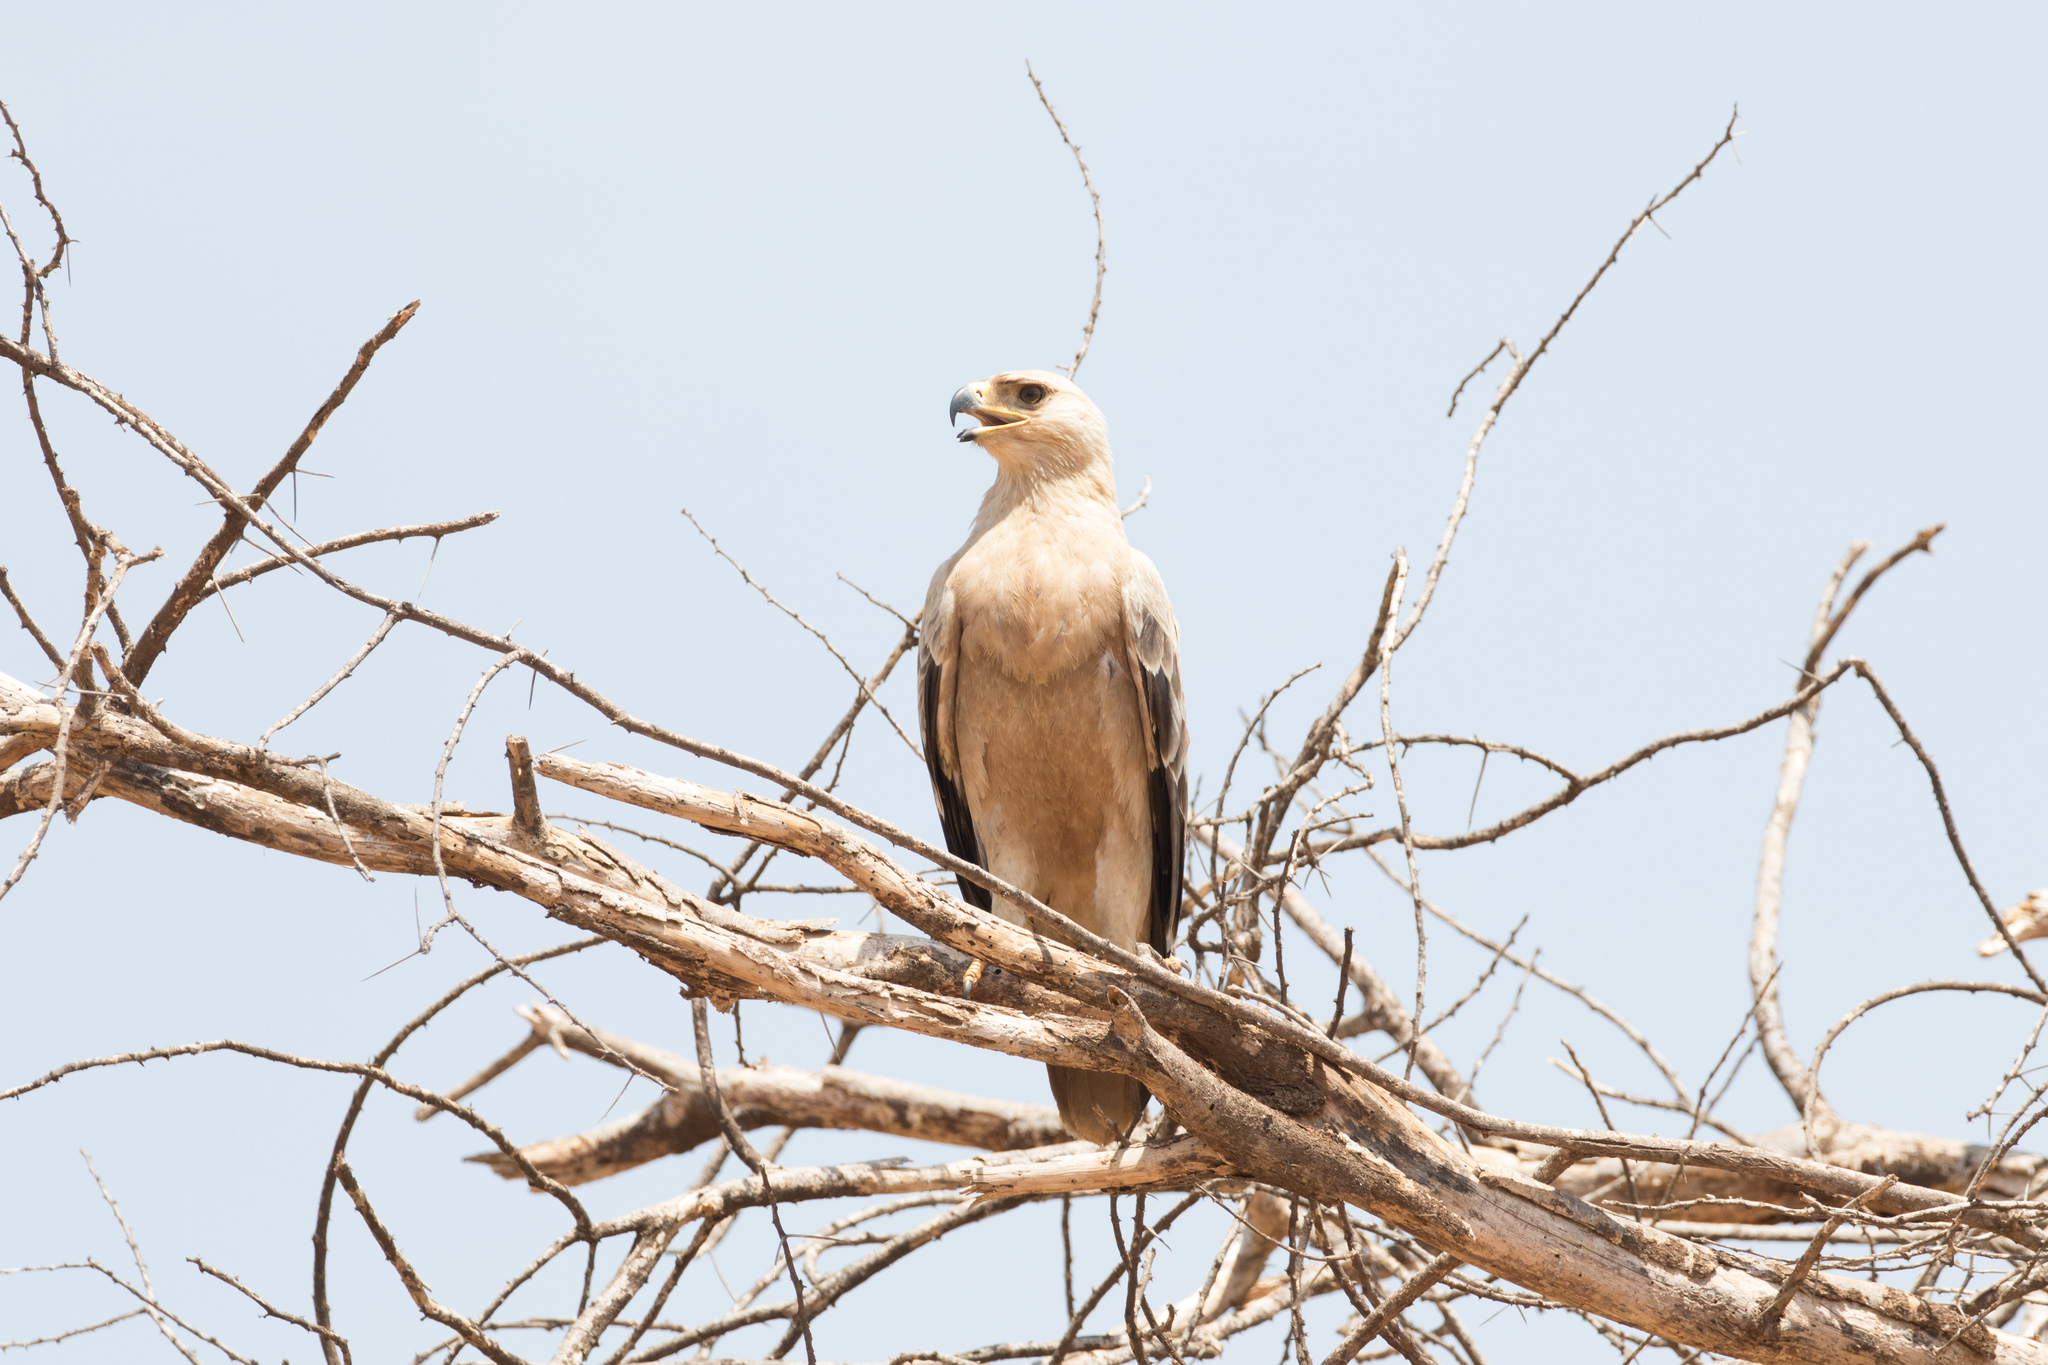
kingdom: Animalia
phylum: Chordata
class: Aves
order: Accipitriformes
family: Accipitridae
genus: Aquila
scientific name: Aquila rapax
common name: Tawny eagle
